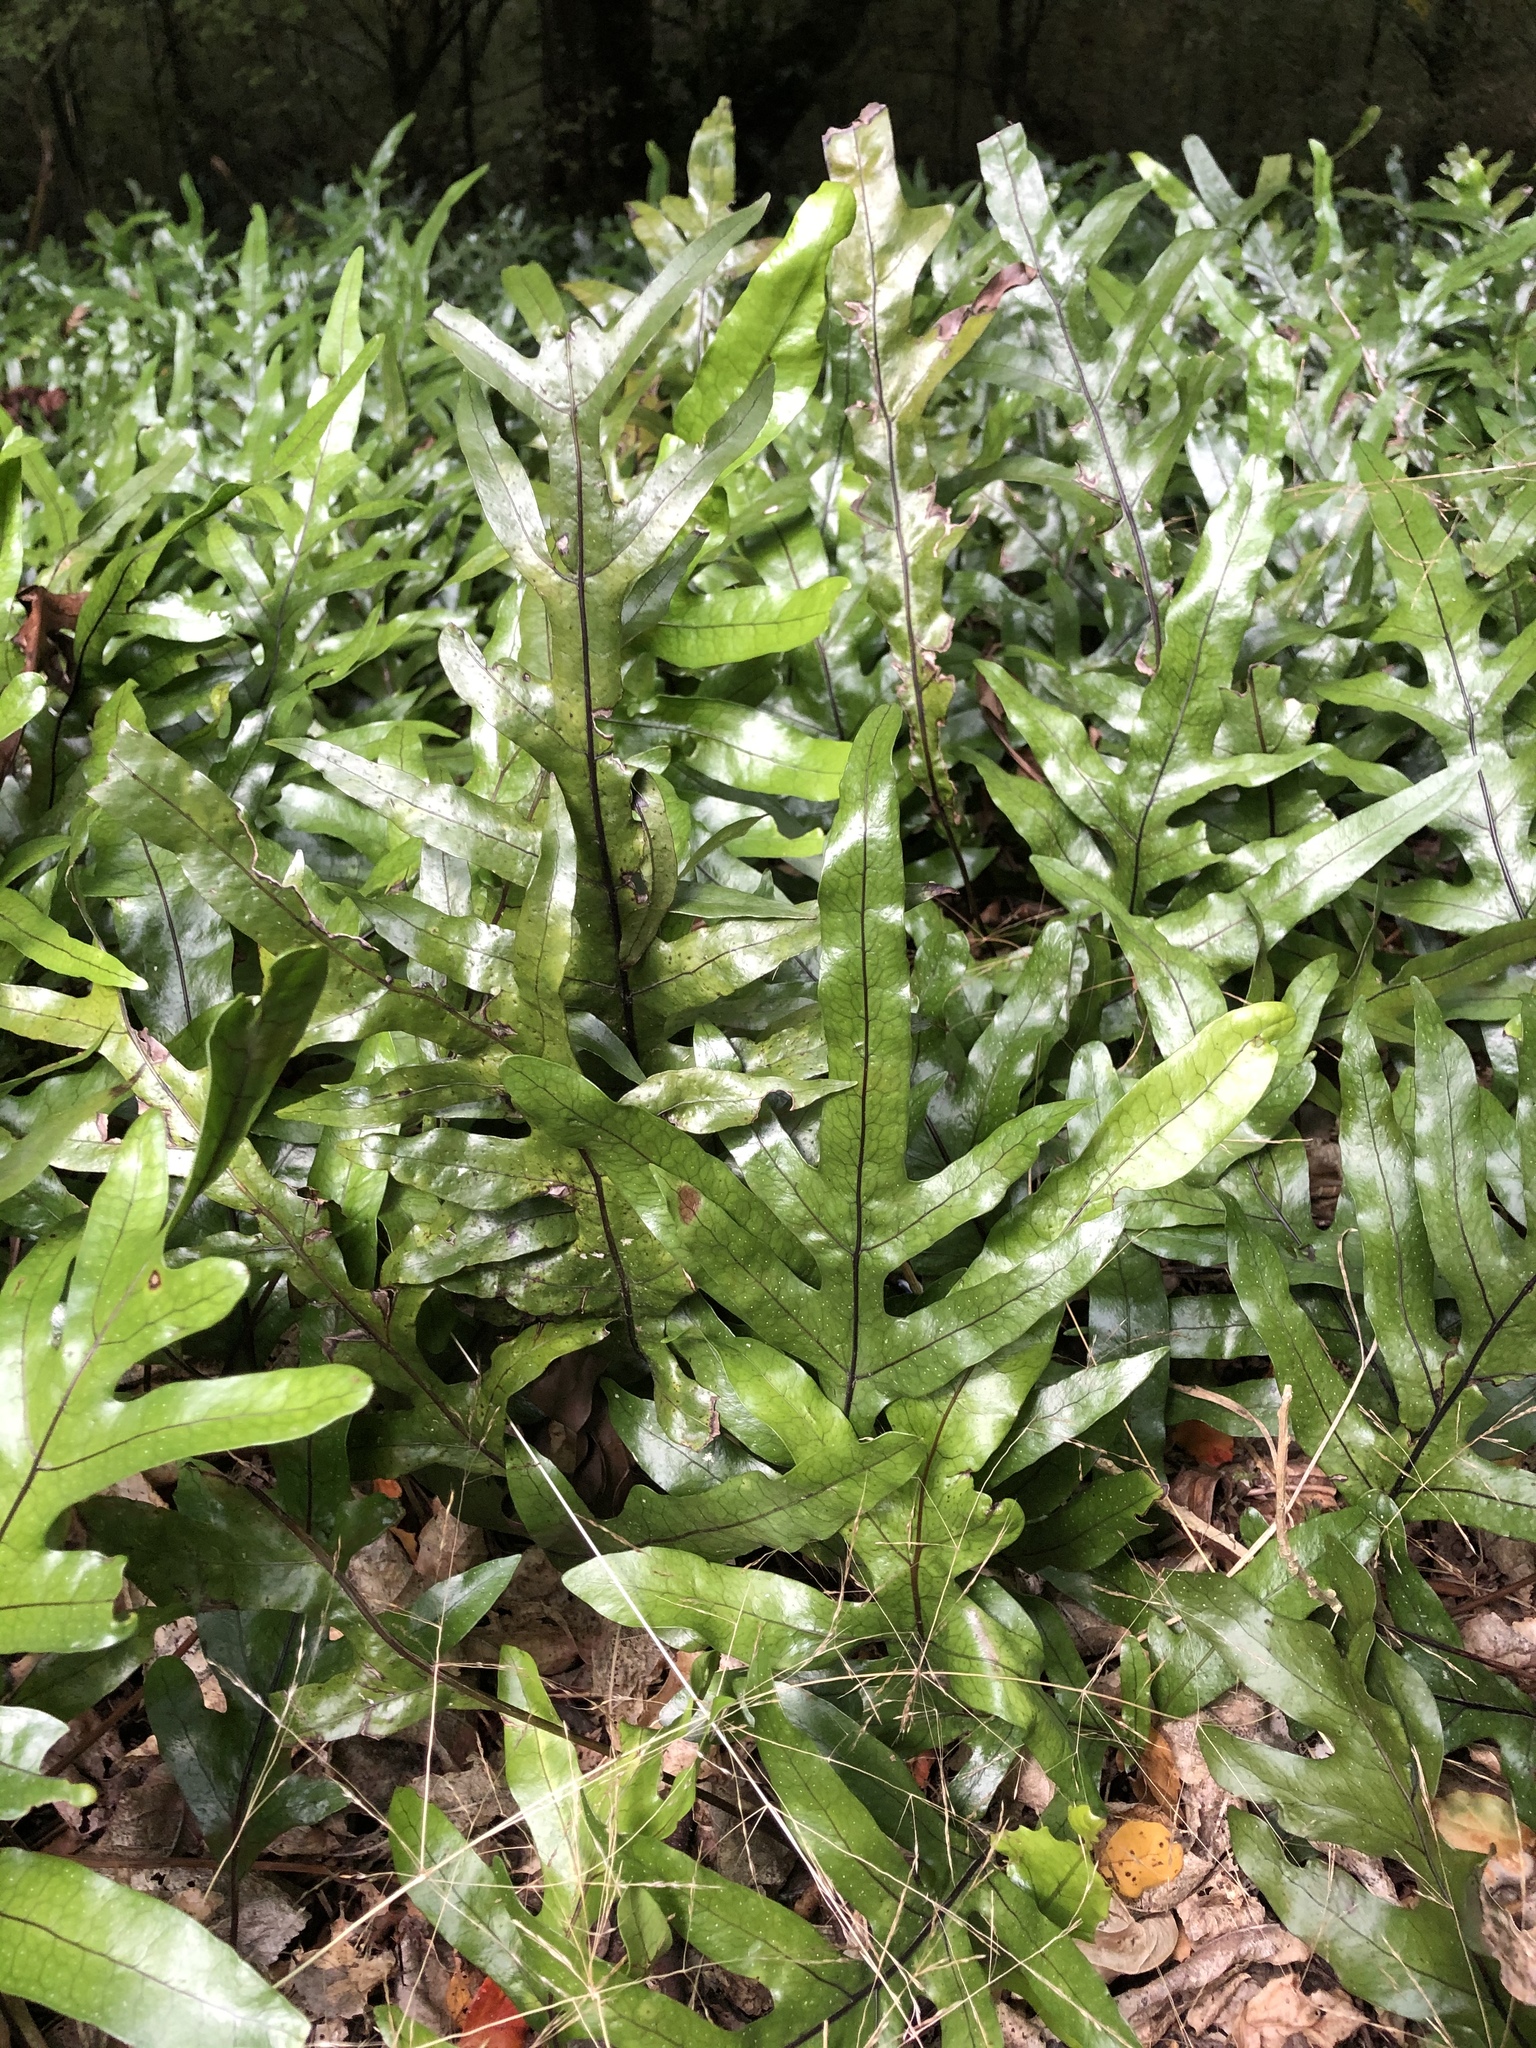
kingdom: Plantae
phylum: Tracheophyta
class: Polypodiopsida
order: Polypodiales
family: Polypodiaceae
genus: Lecanopteris
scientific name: Lecanopteris pustulata
